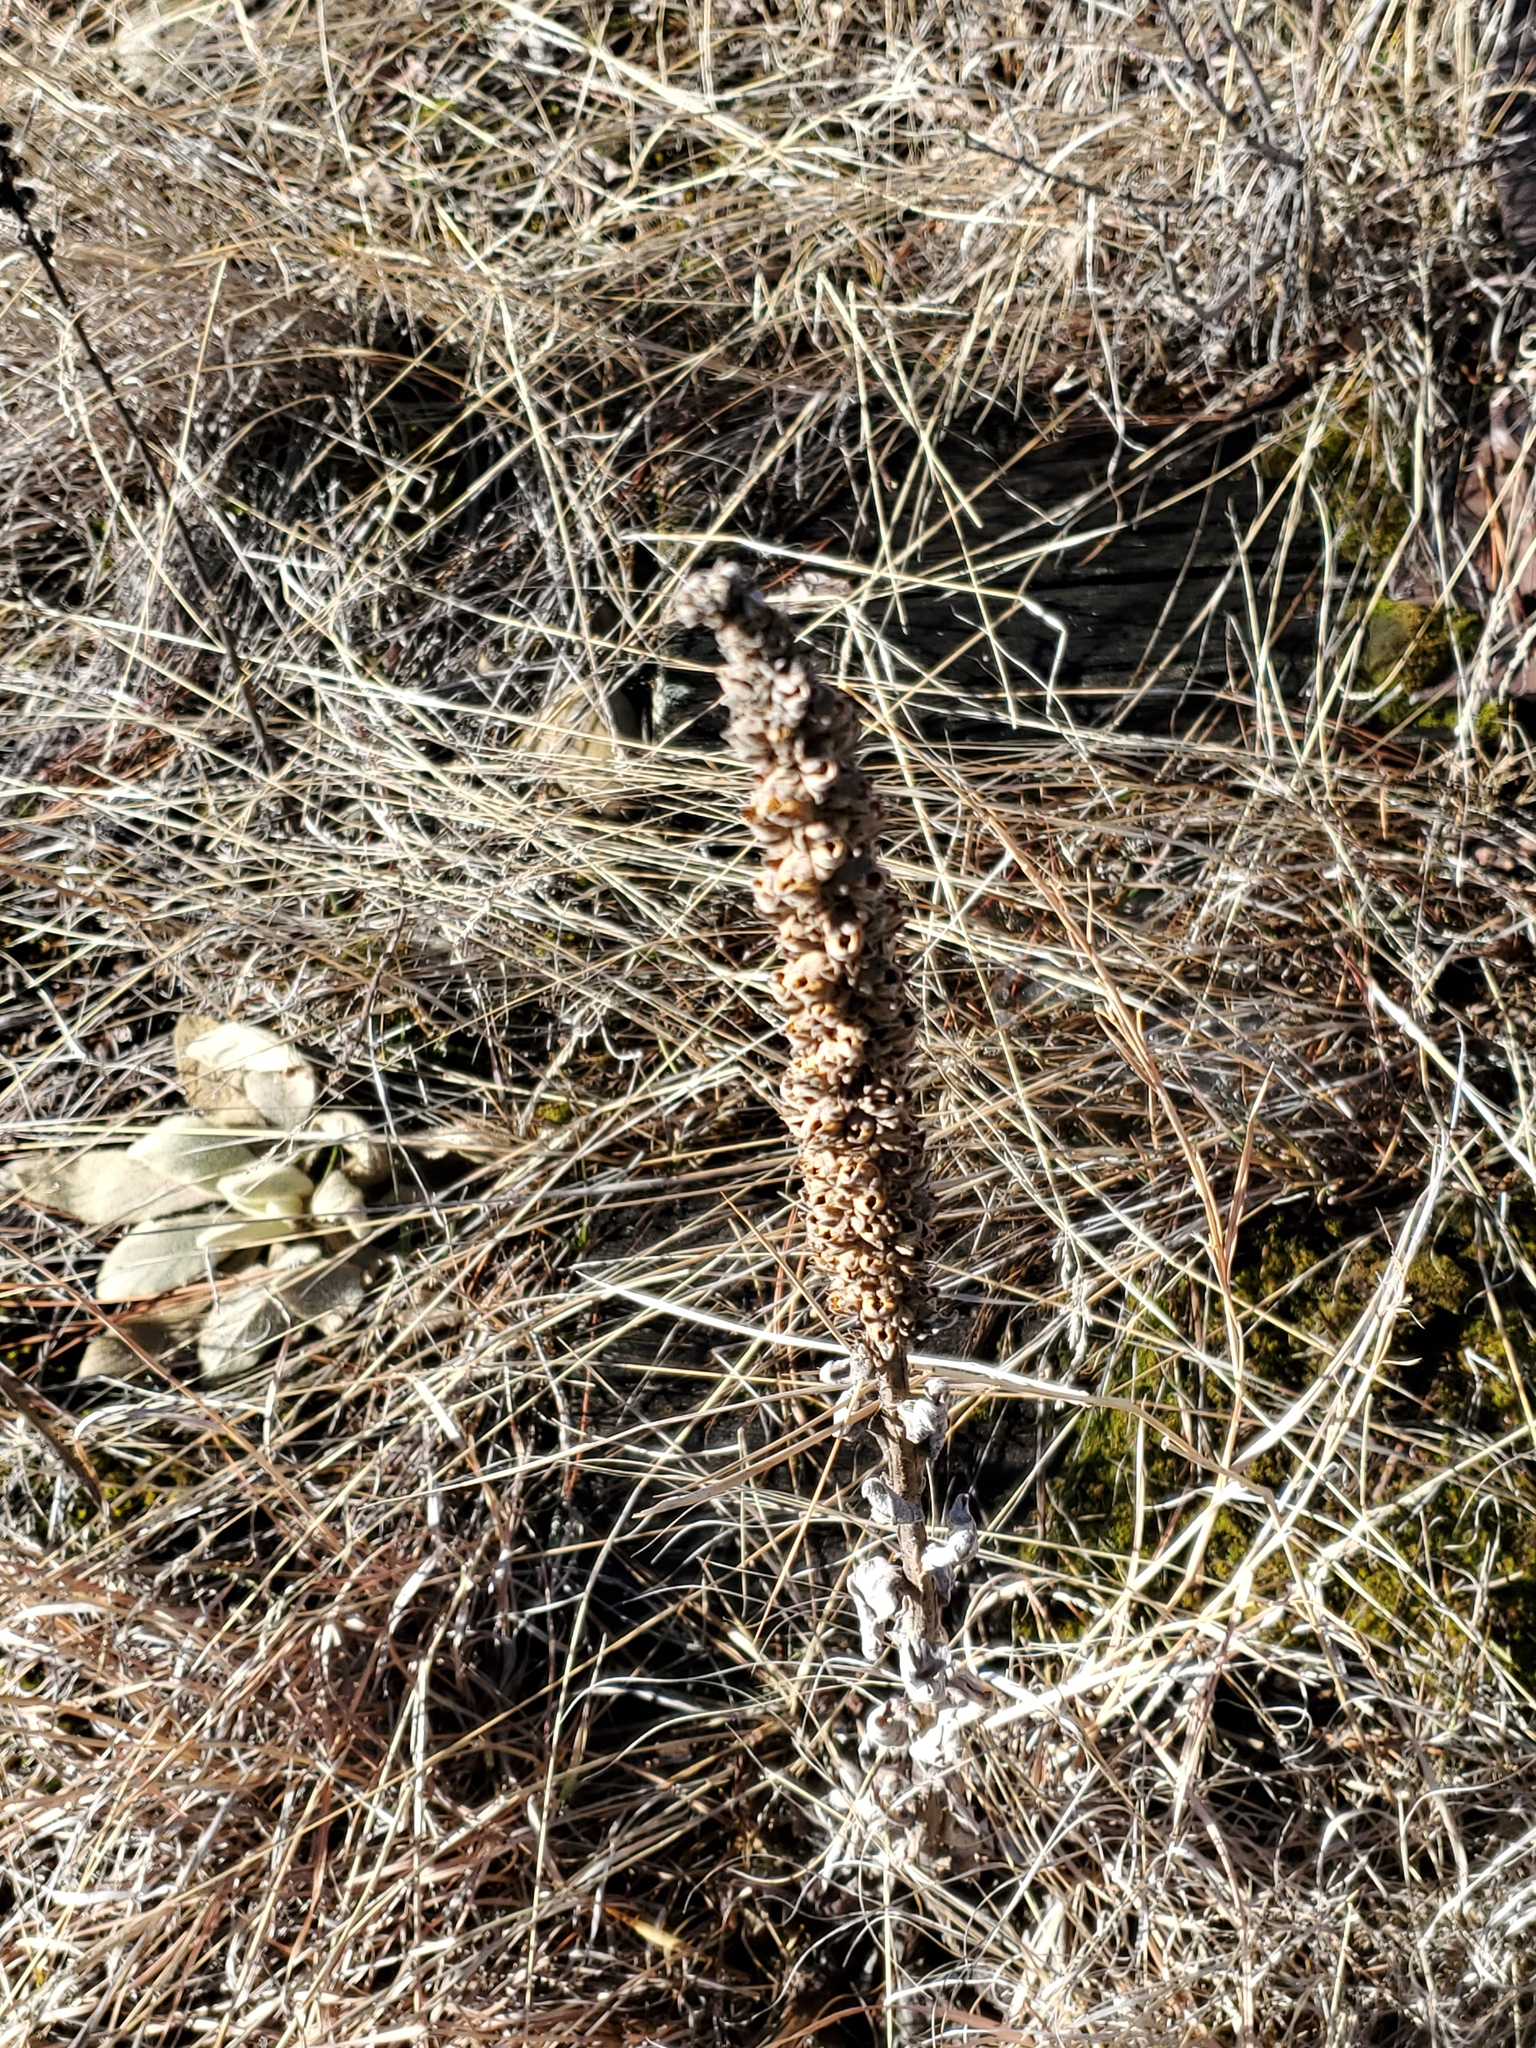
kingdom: Plantae
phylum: Tracheophyta
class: Magnoliopsida
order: Lamiales
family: Scrophulariaceae
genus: Verbascum
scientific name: Verbascum thapsus
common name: Common mullein
